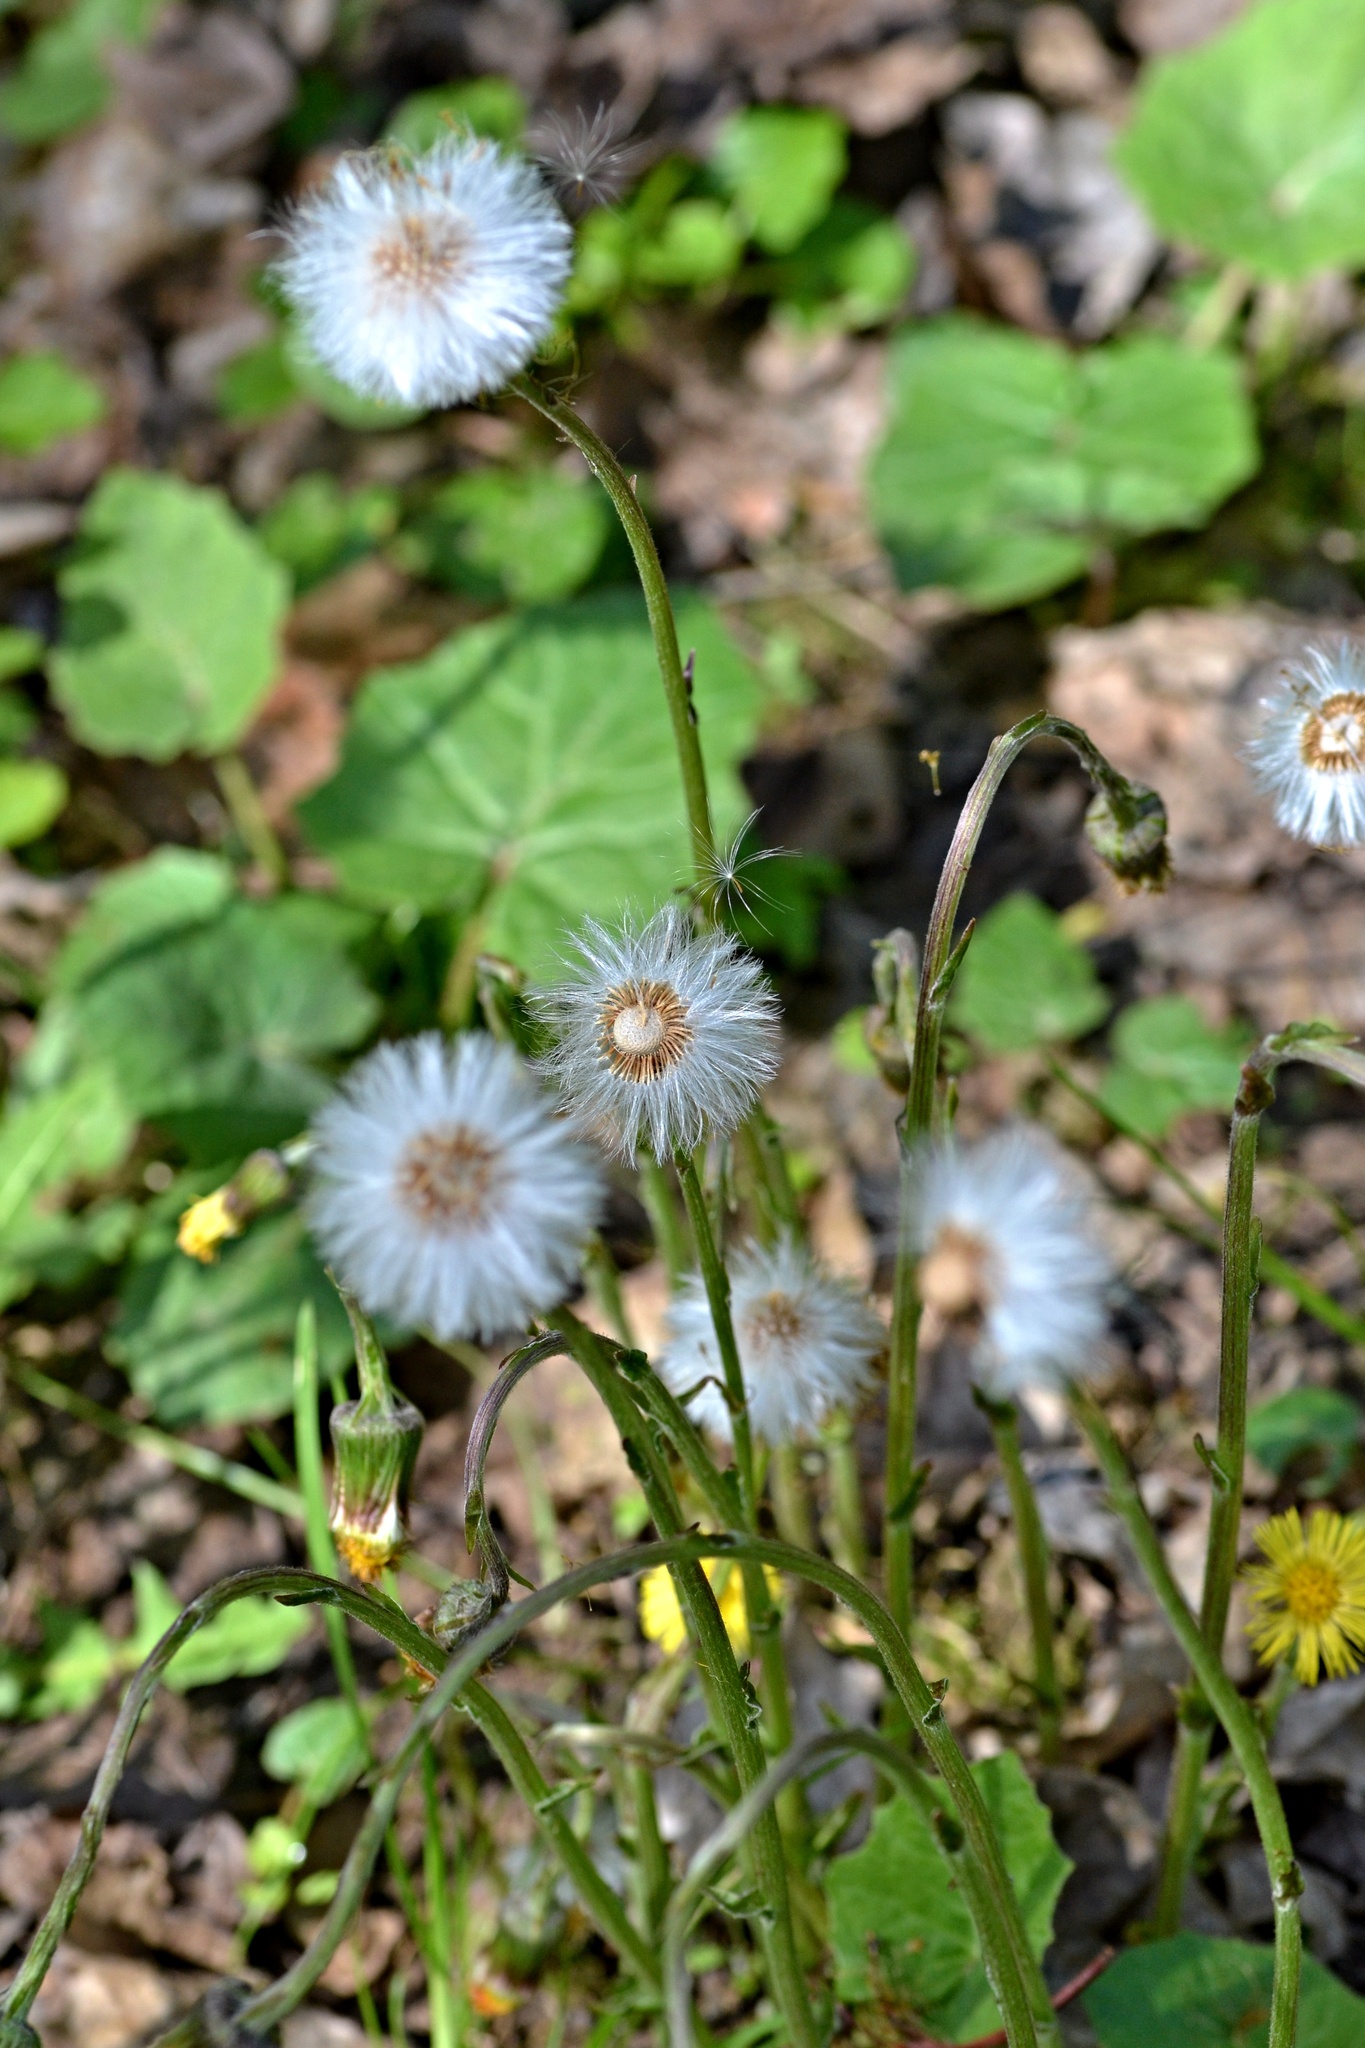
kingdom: Plantae
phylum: Tracheophyta
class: Magnoliopsida
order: Asterales
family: Asteraceae
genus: Tussilago
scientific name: Tussilago farfara
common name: Coltsfoot
